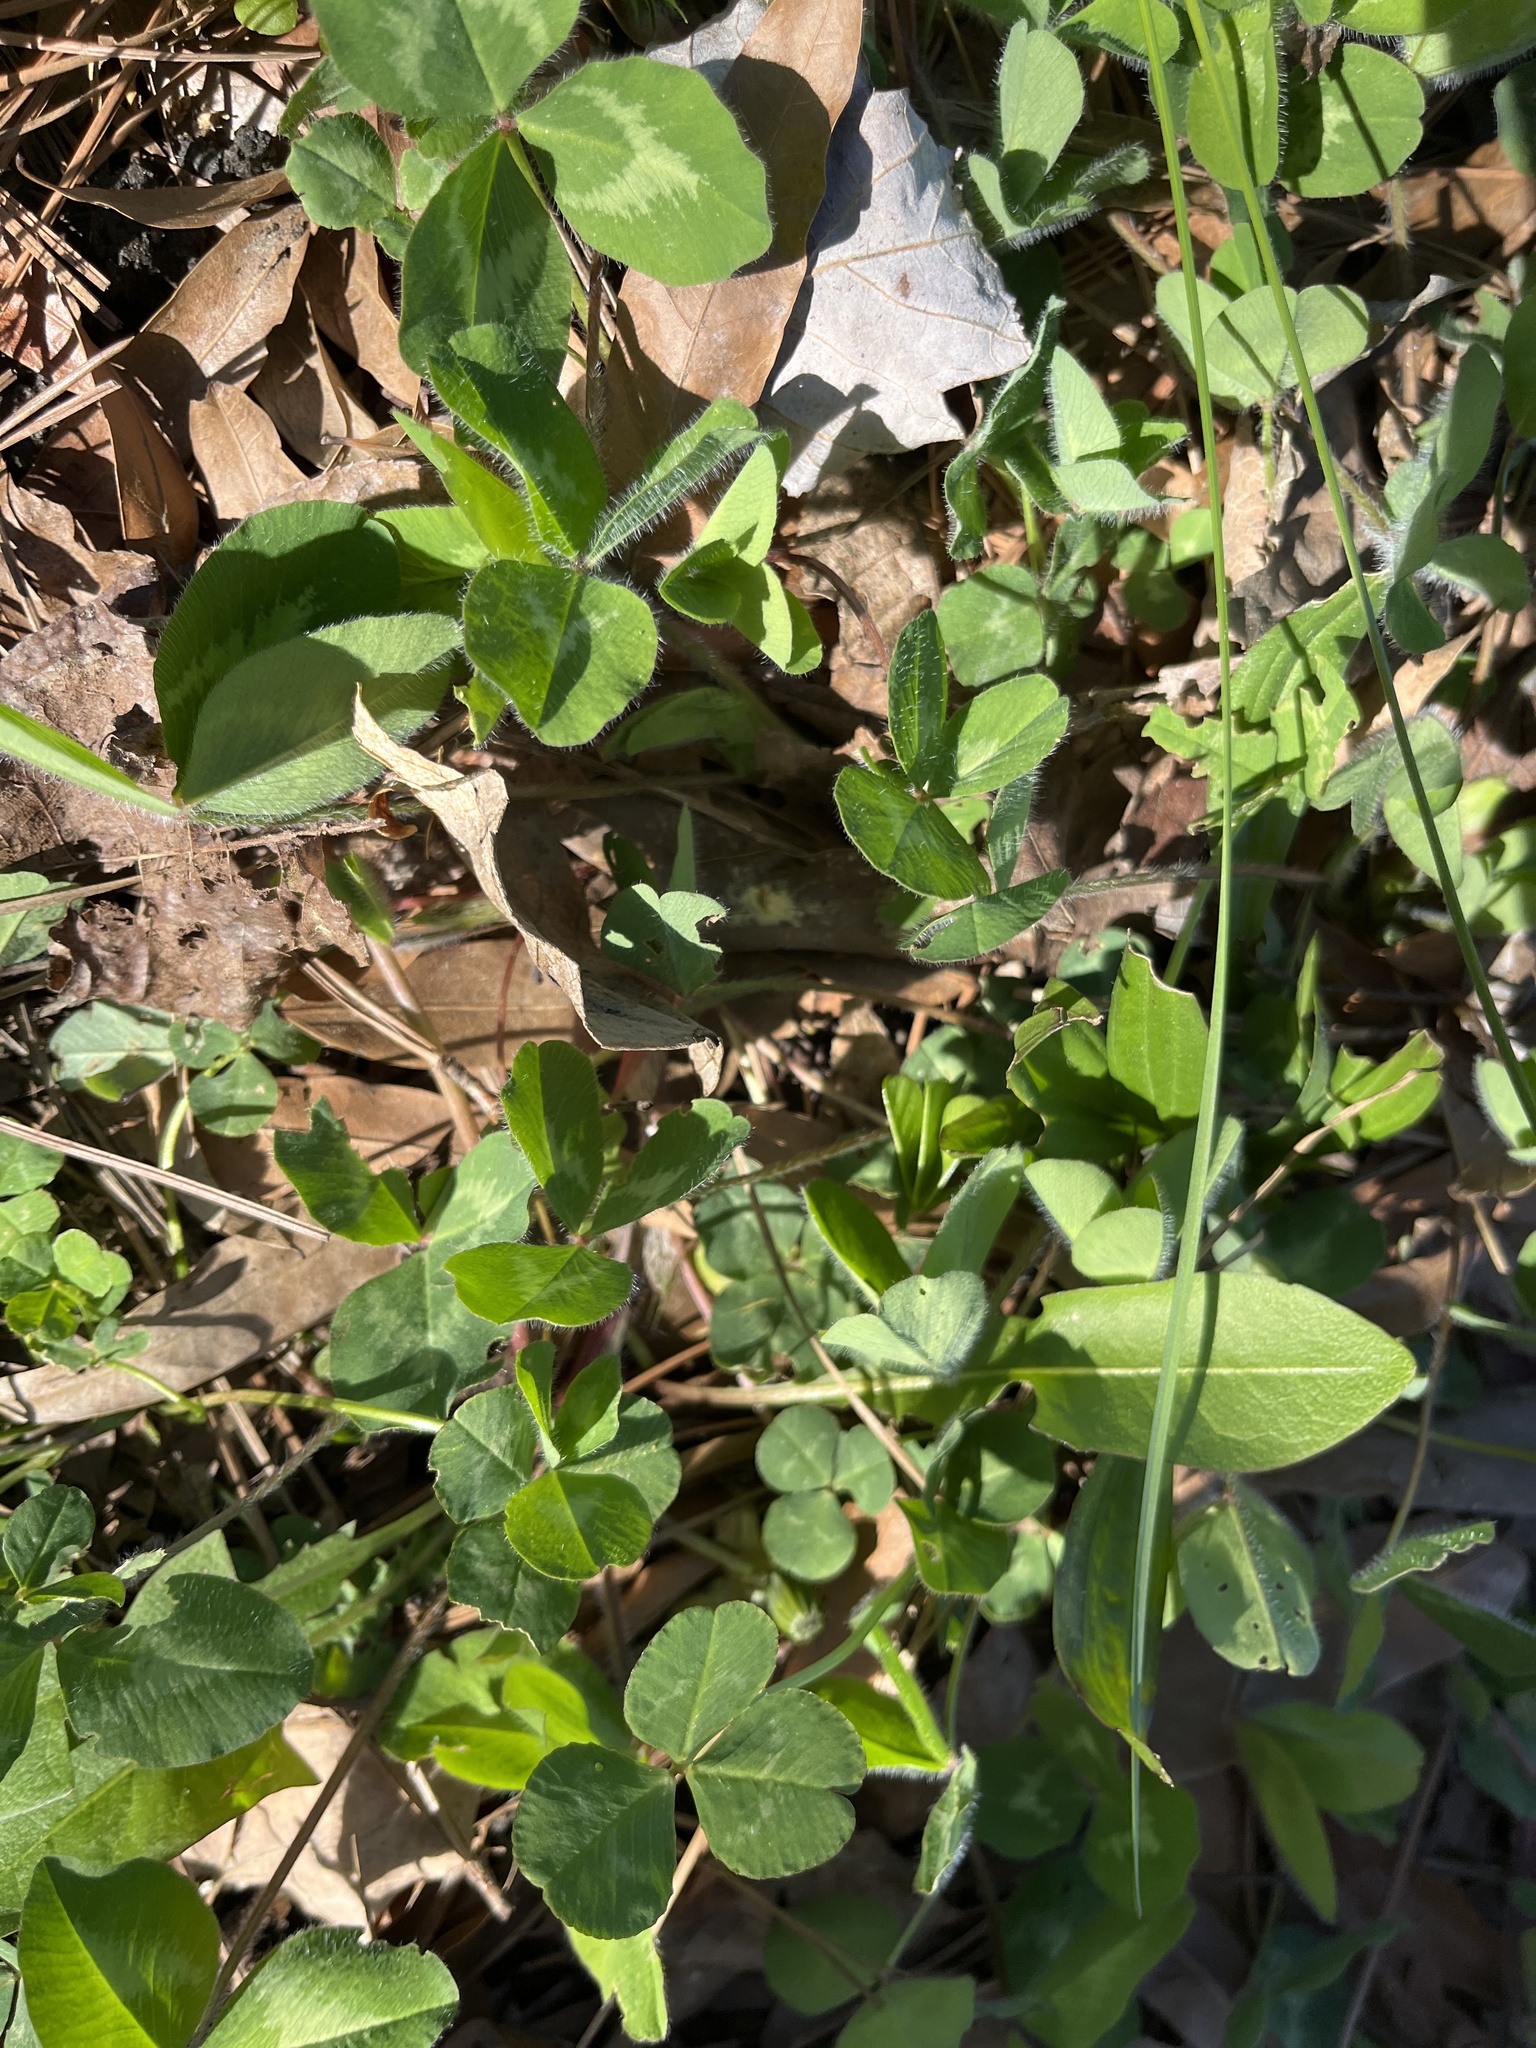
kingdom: Plantae
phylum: Tracheophyta
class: Magnoliopsida
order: Fabales
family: Fabaceae
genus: Trifolium
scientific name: Trifolium pratense
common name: Red clover
